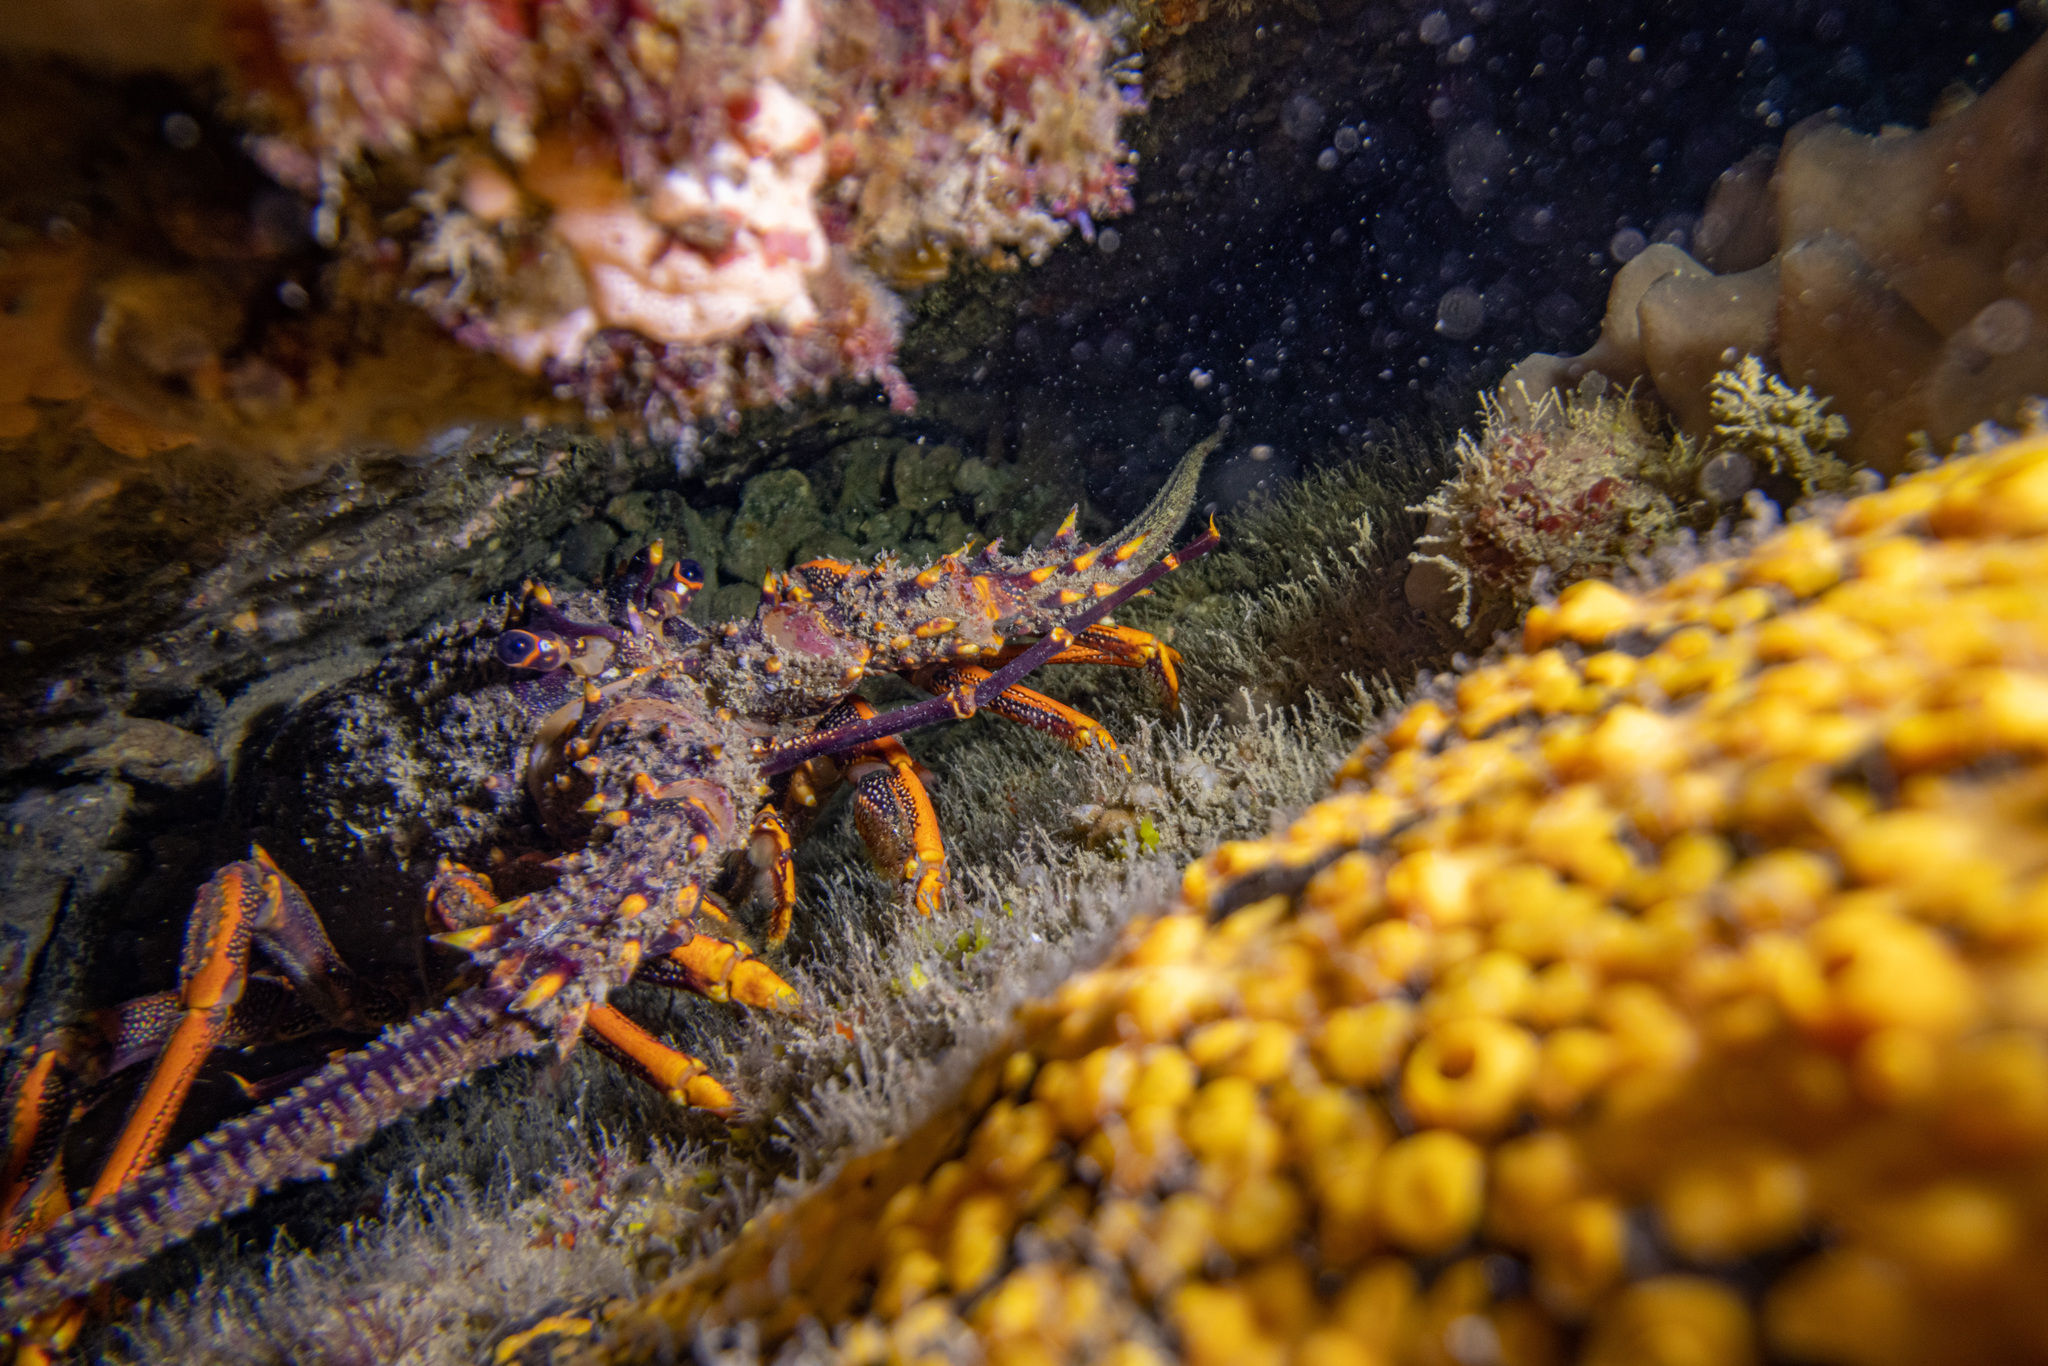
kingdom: Animalia
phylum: Arthropoda
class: Malacostraca
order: Decapoda
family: Palinuridae
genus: Jasus
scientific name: Jasus edwardsii
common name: Red rock lobster
